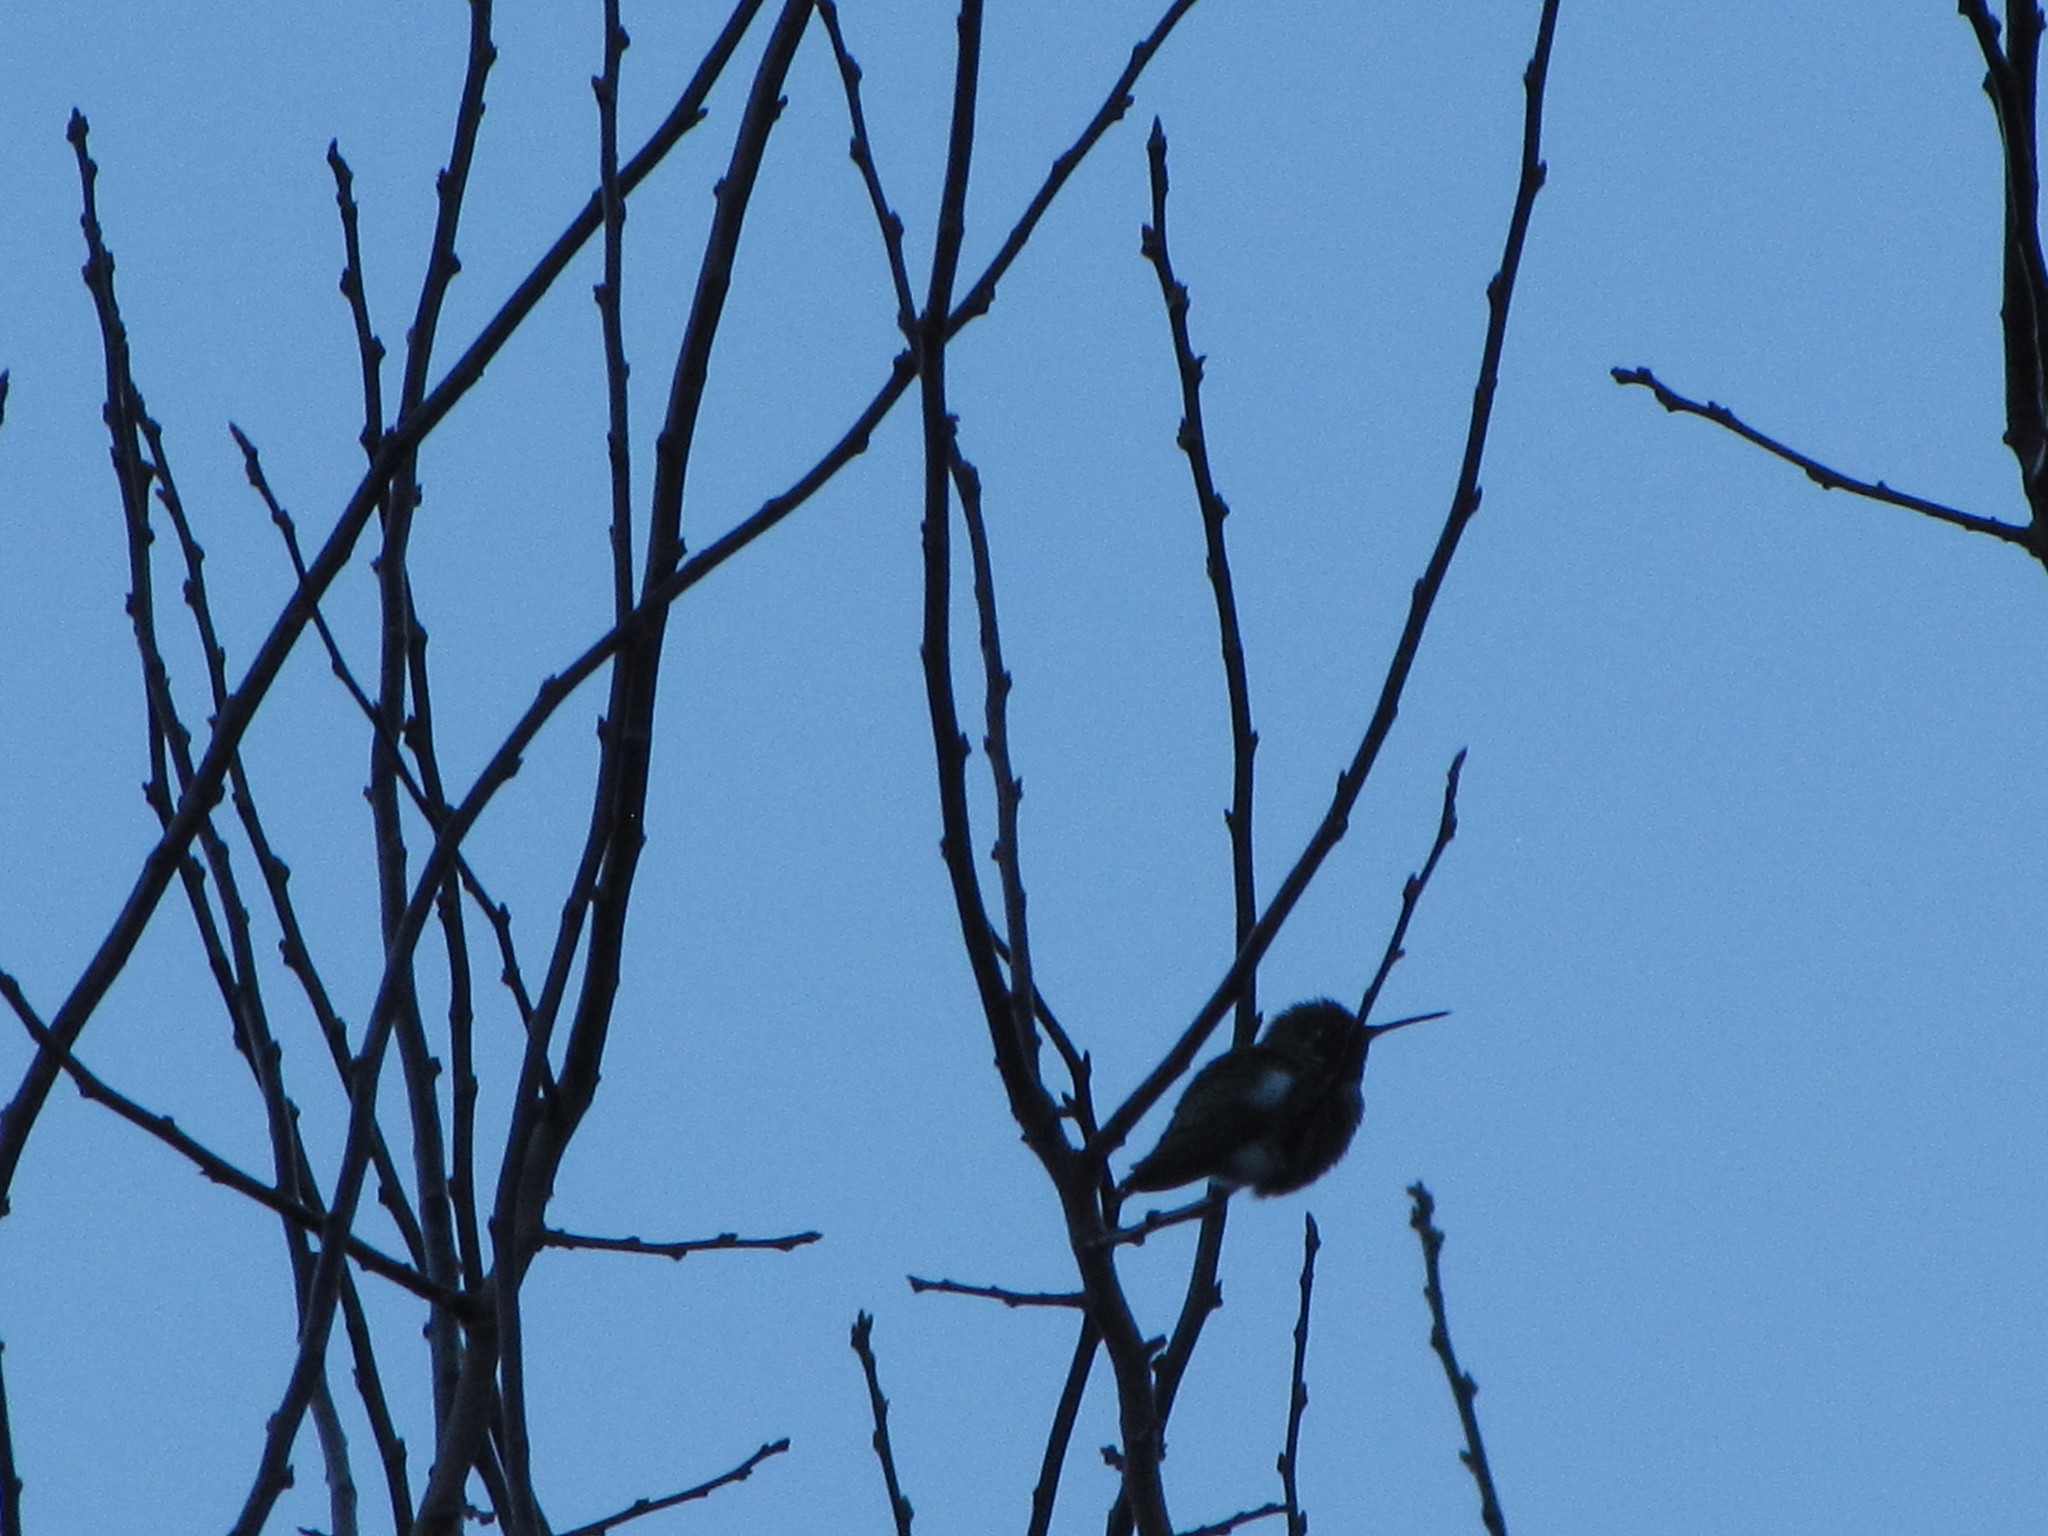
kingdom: Animalia
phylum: Chordata
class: Aves
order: Apodiformes
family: Trochilidae
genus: Calypte
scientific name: Calypte anna
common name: Anna's hummingbird
